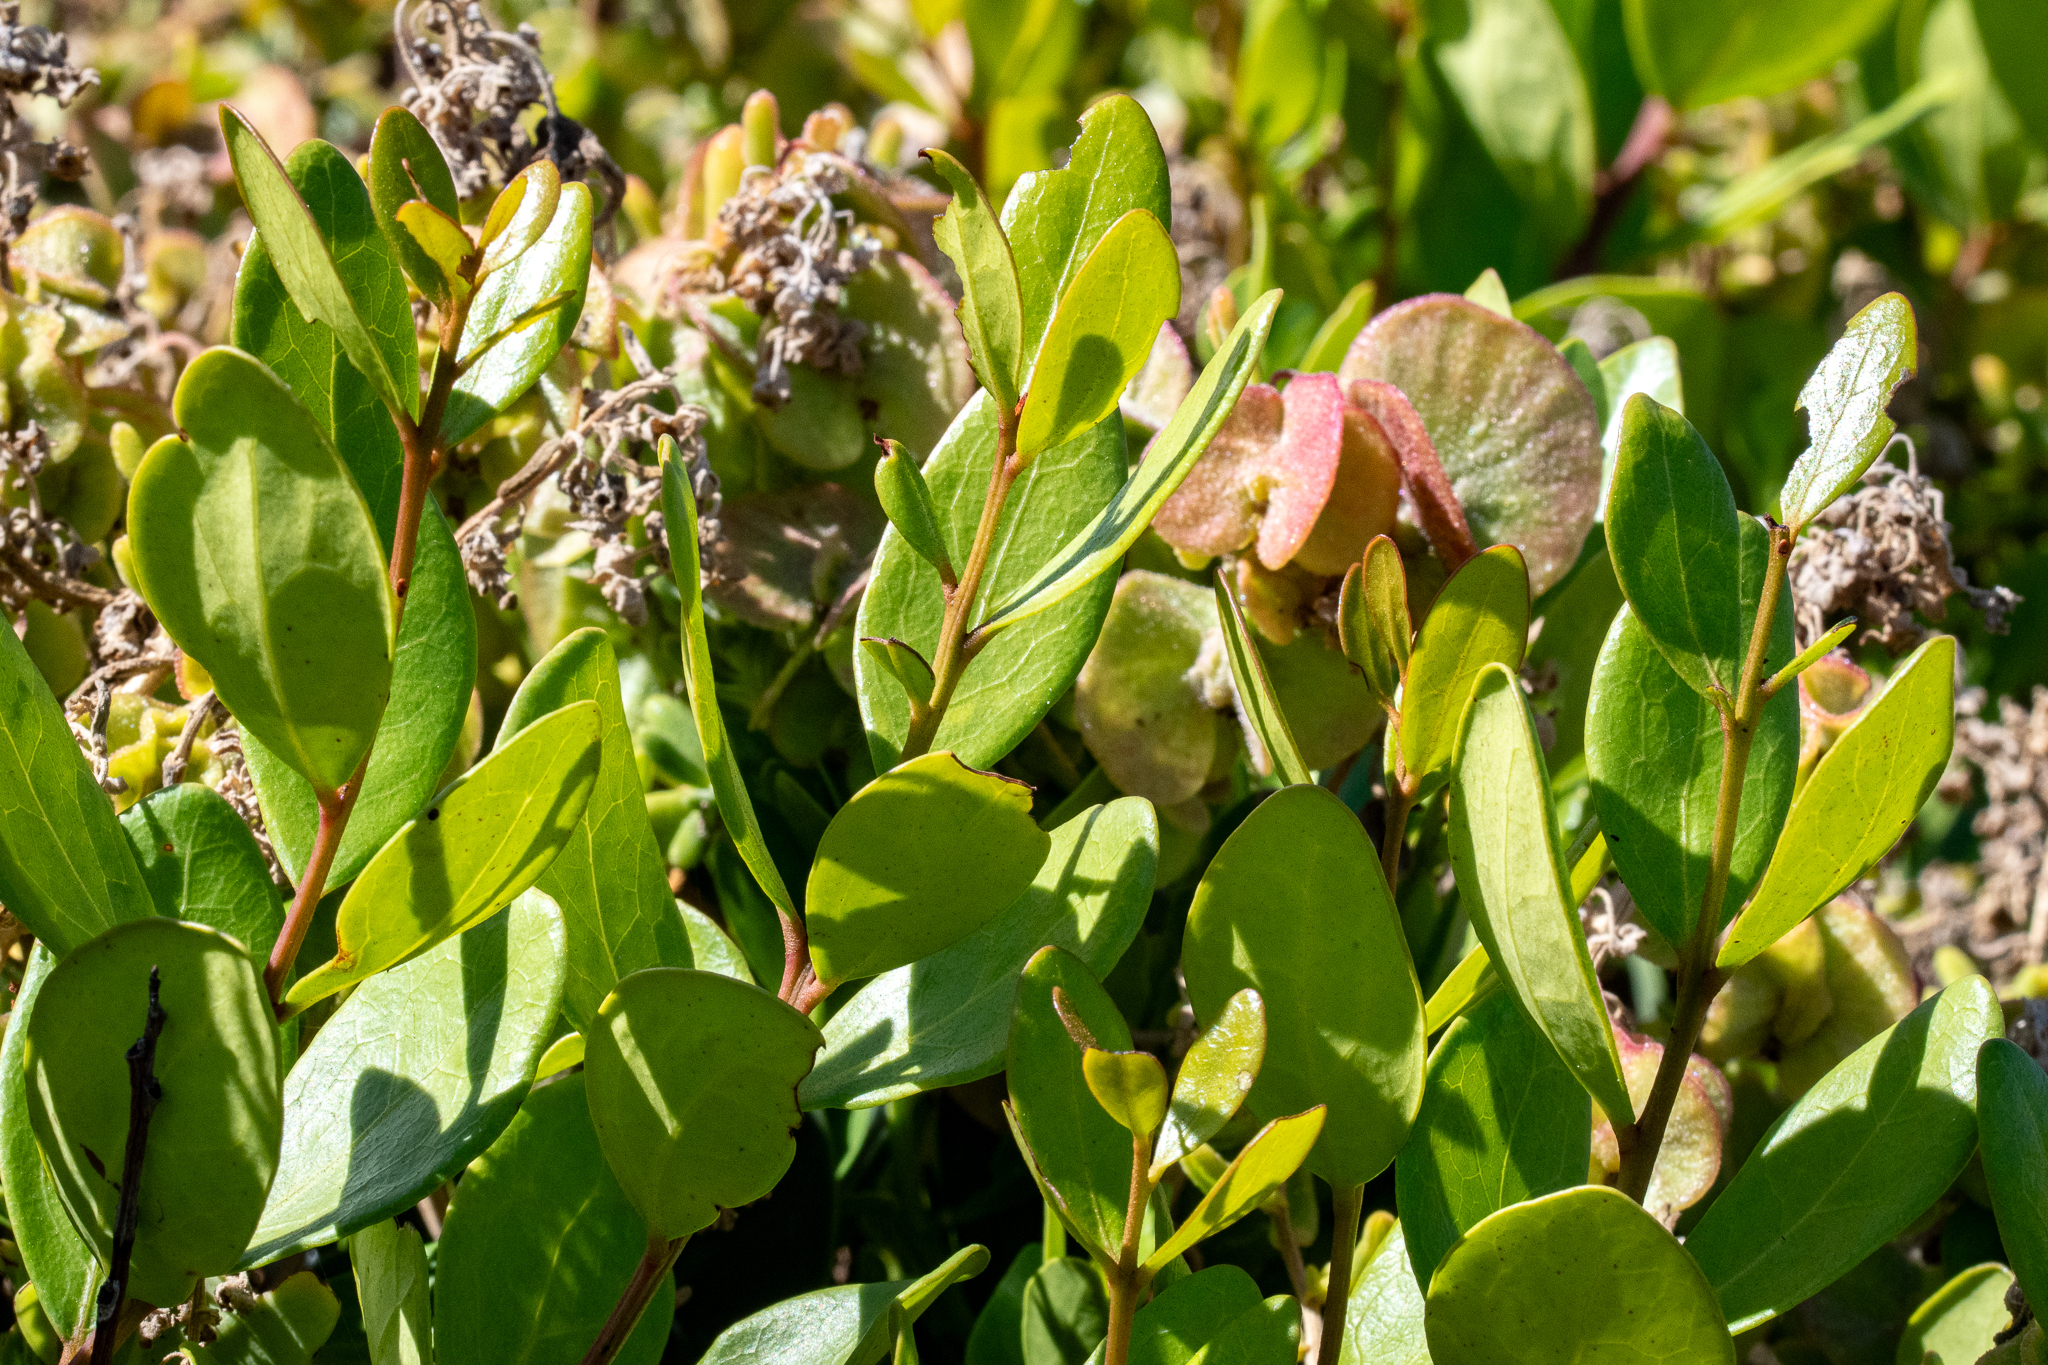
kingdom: Plantae
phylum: Tracheophyta
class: Magnoliopsida
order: Ericales
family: Ebenaceae
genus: Euclea
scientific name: Euclea racemosa
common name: Dune guarri
